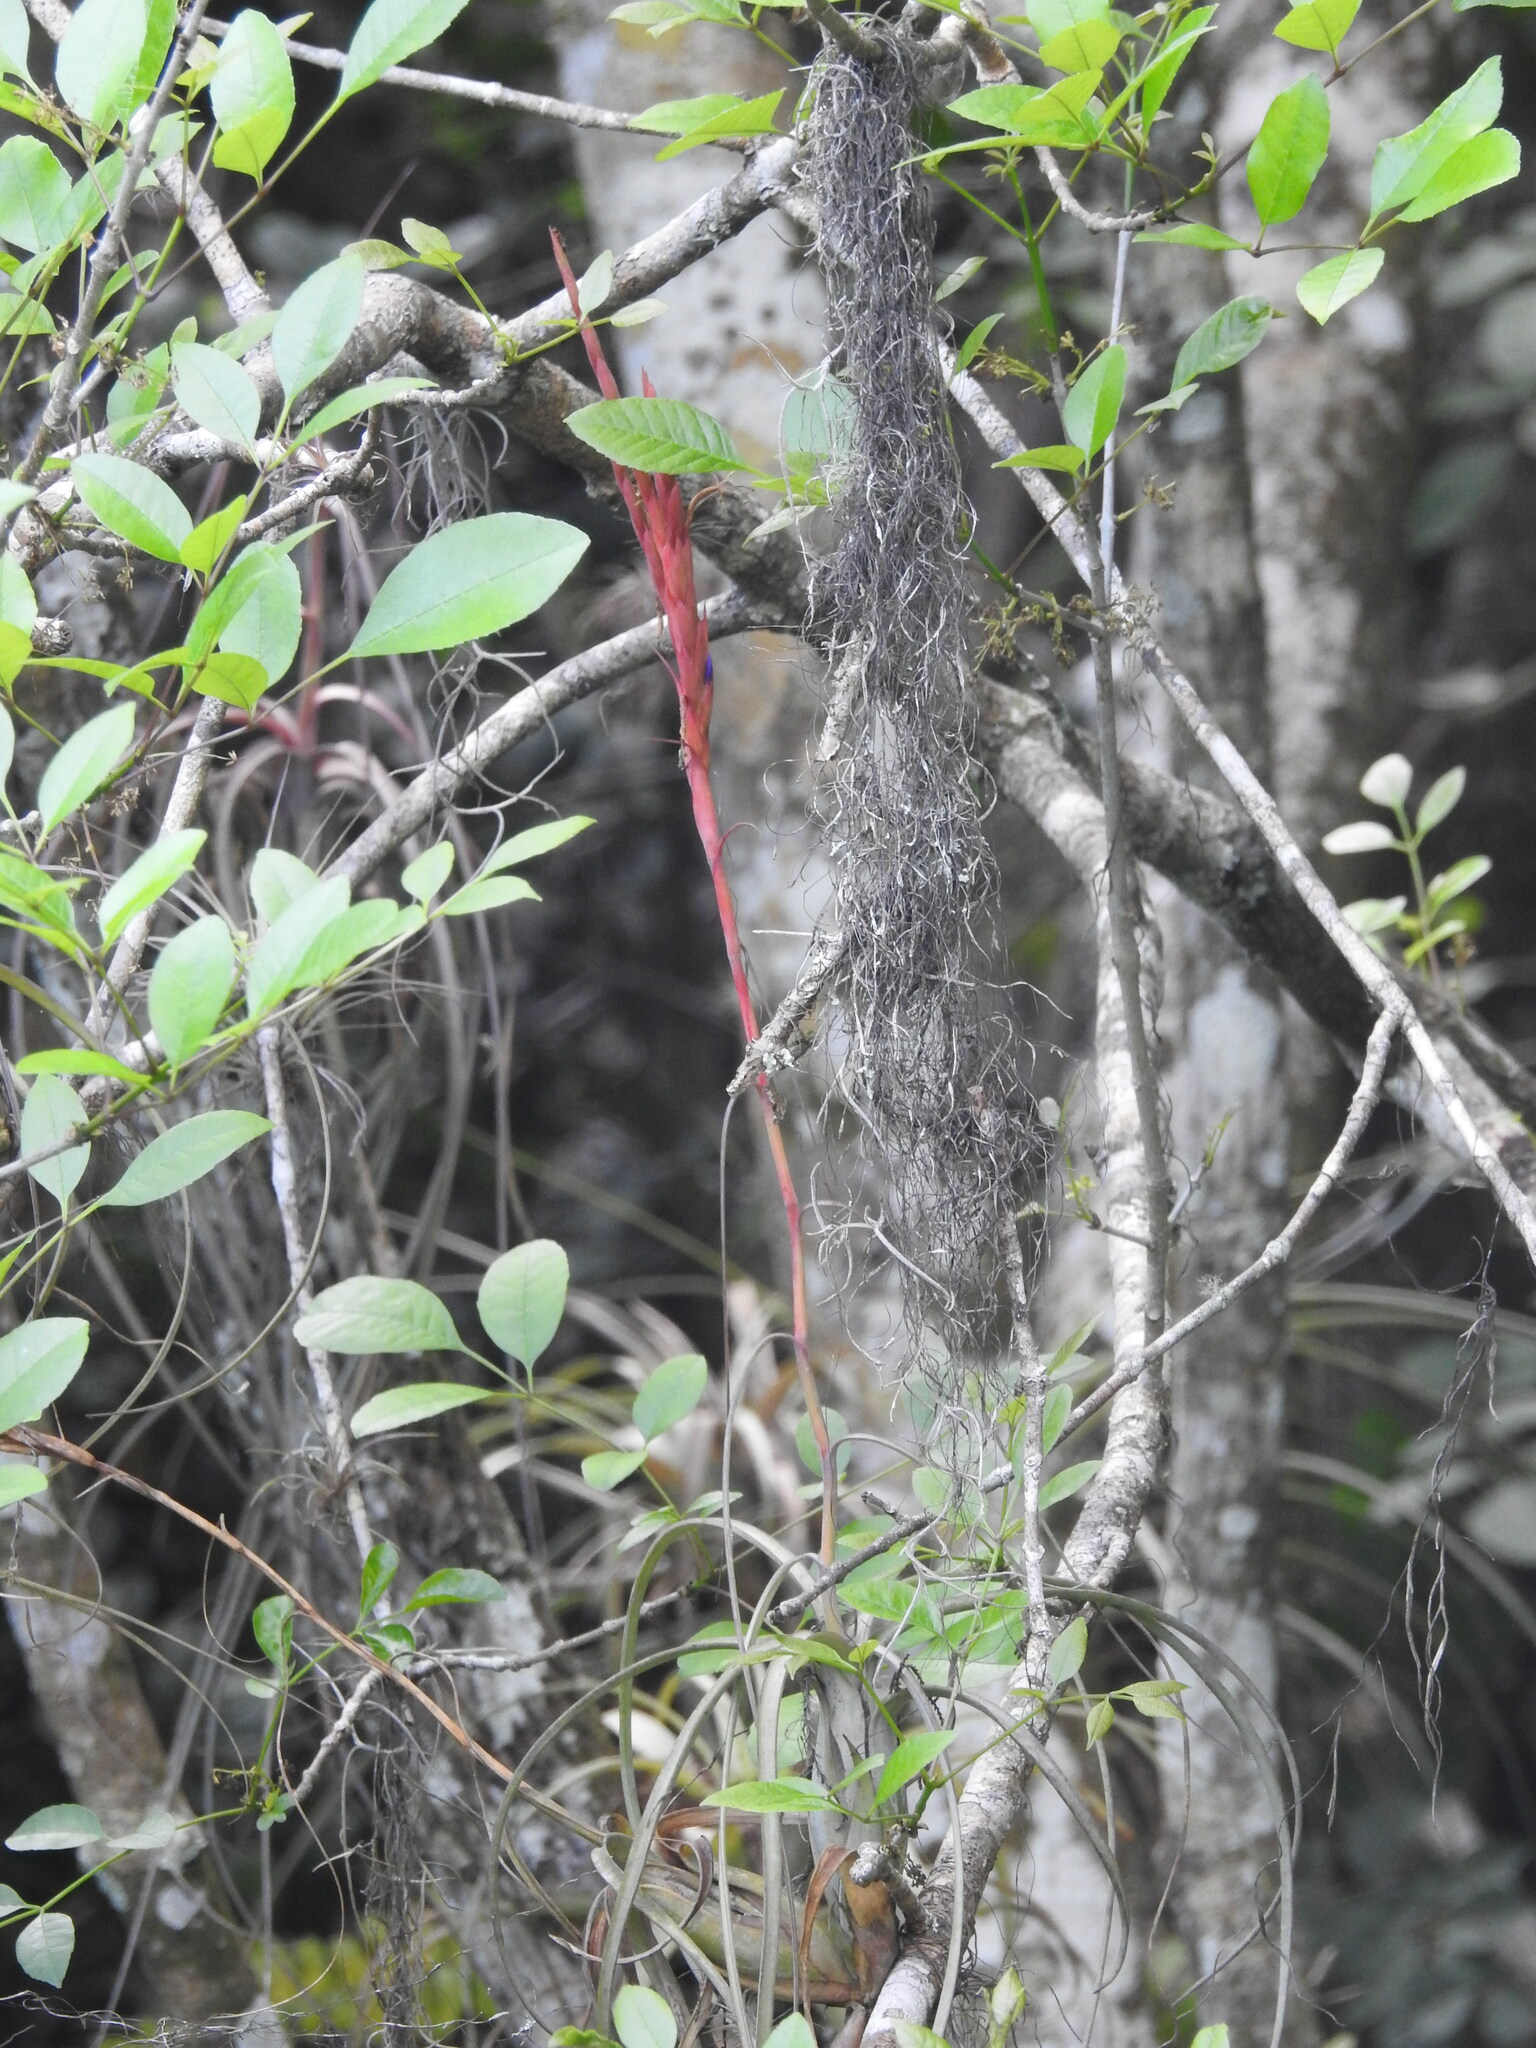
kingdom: Plantae
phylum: Tracheophyta
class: Liliopsida
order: Poales
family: Bromeliaceae
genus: Tillandsia
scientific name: Tillandsia balbisiana
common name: Northern needleleaf
